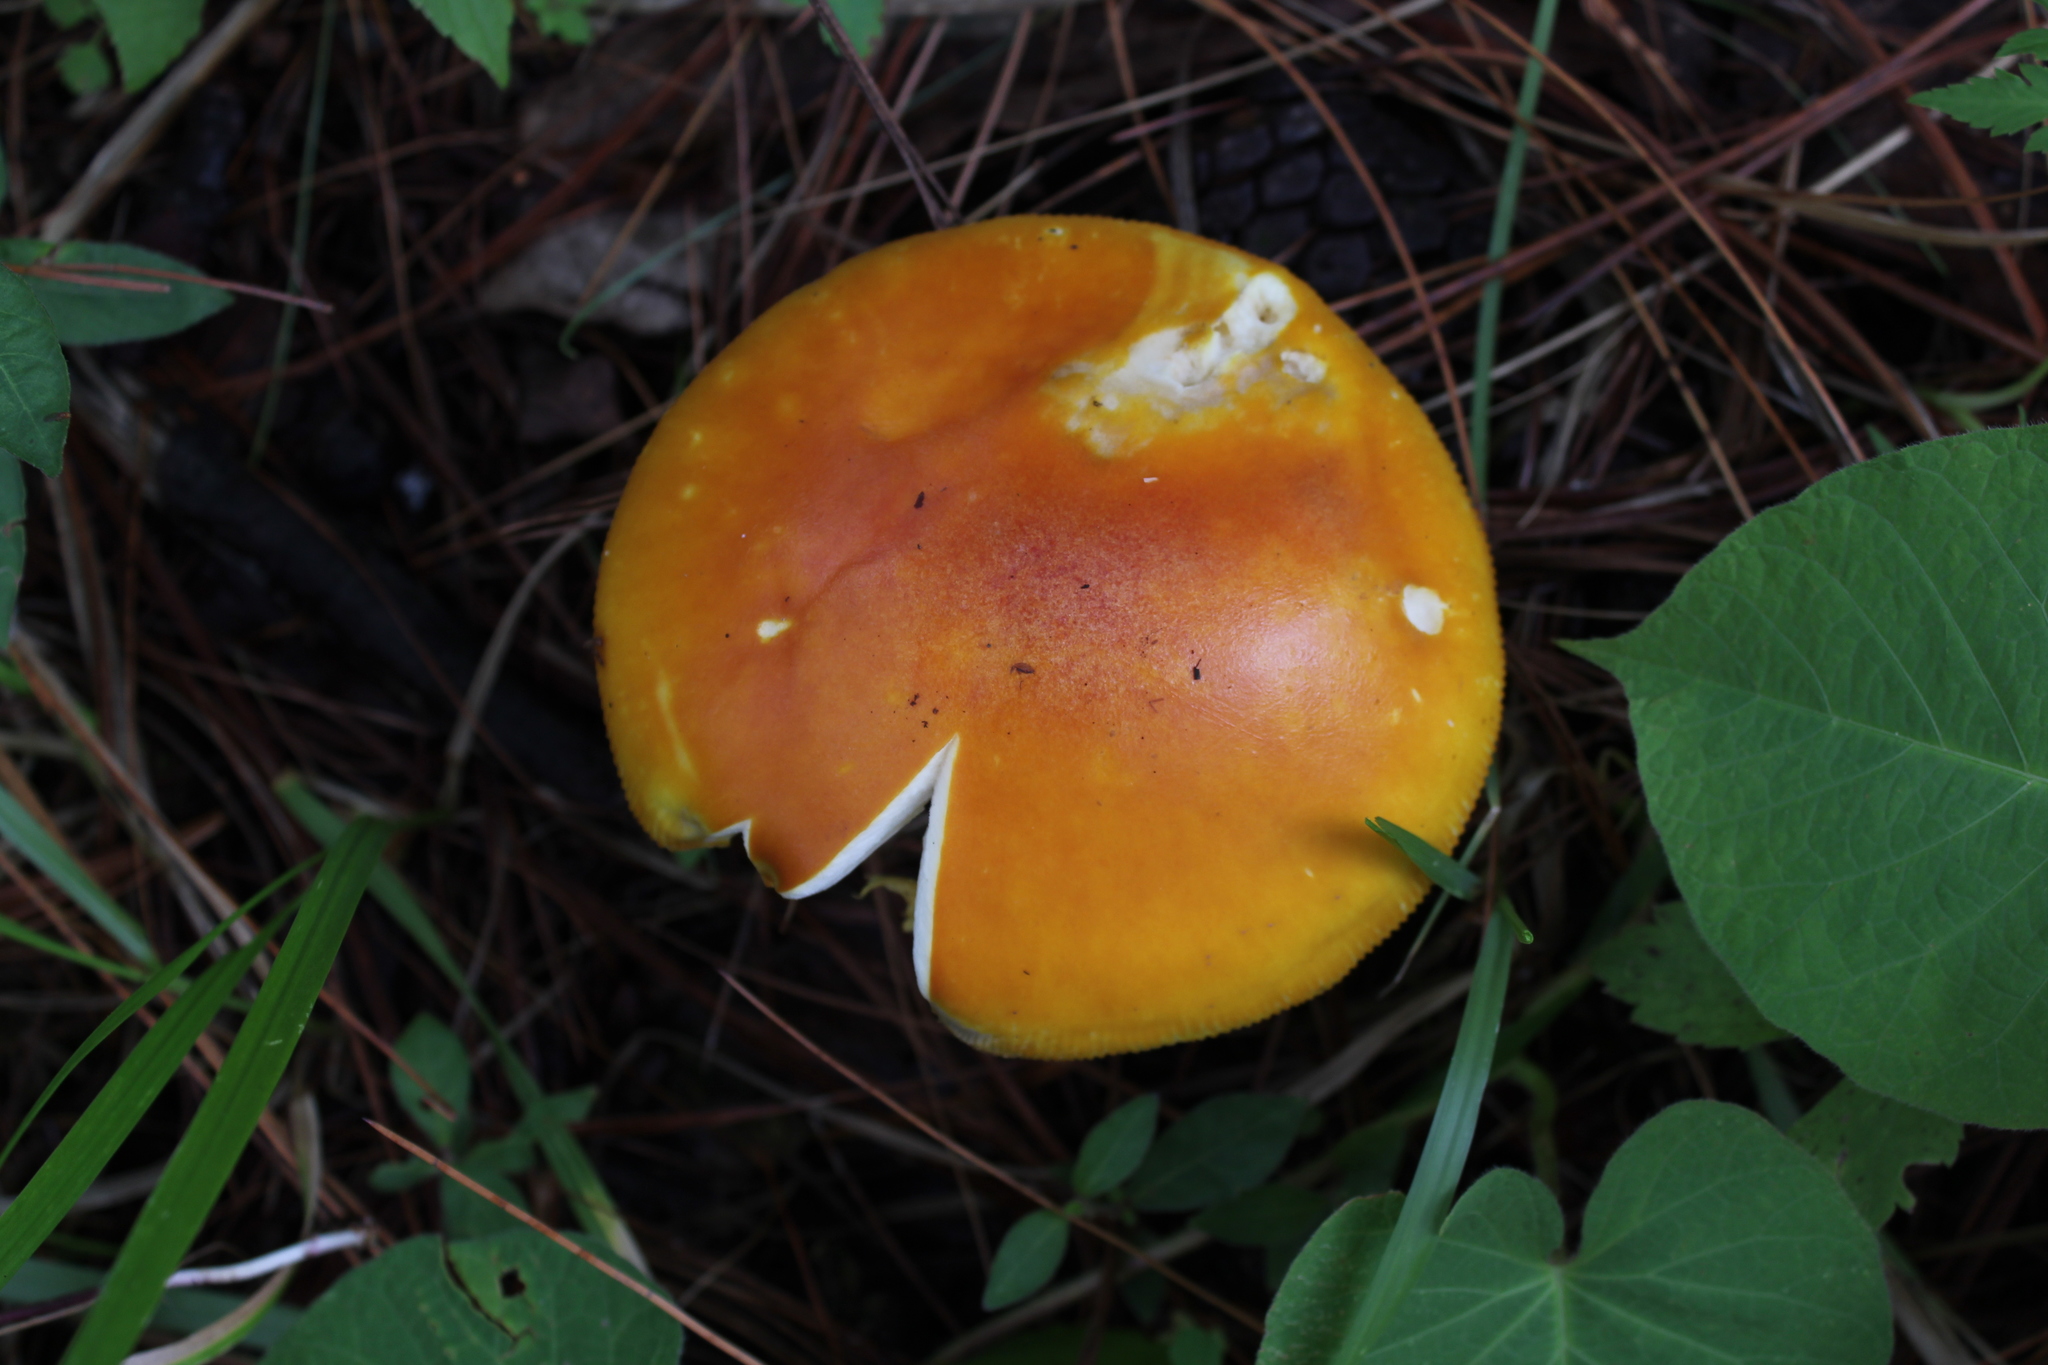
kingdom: Fungi
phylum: Basidiomycota
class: Agaricomycetes
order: Agaricales
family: Amanitaceae
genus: Amanita
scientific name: Amanita flavoconia
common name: Yellow patches
